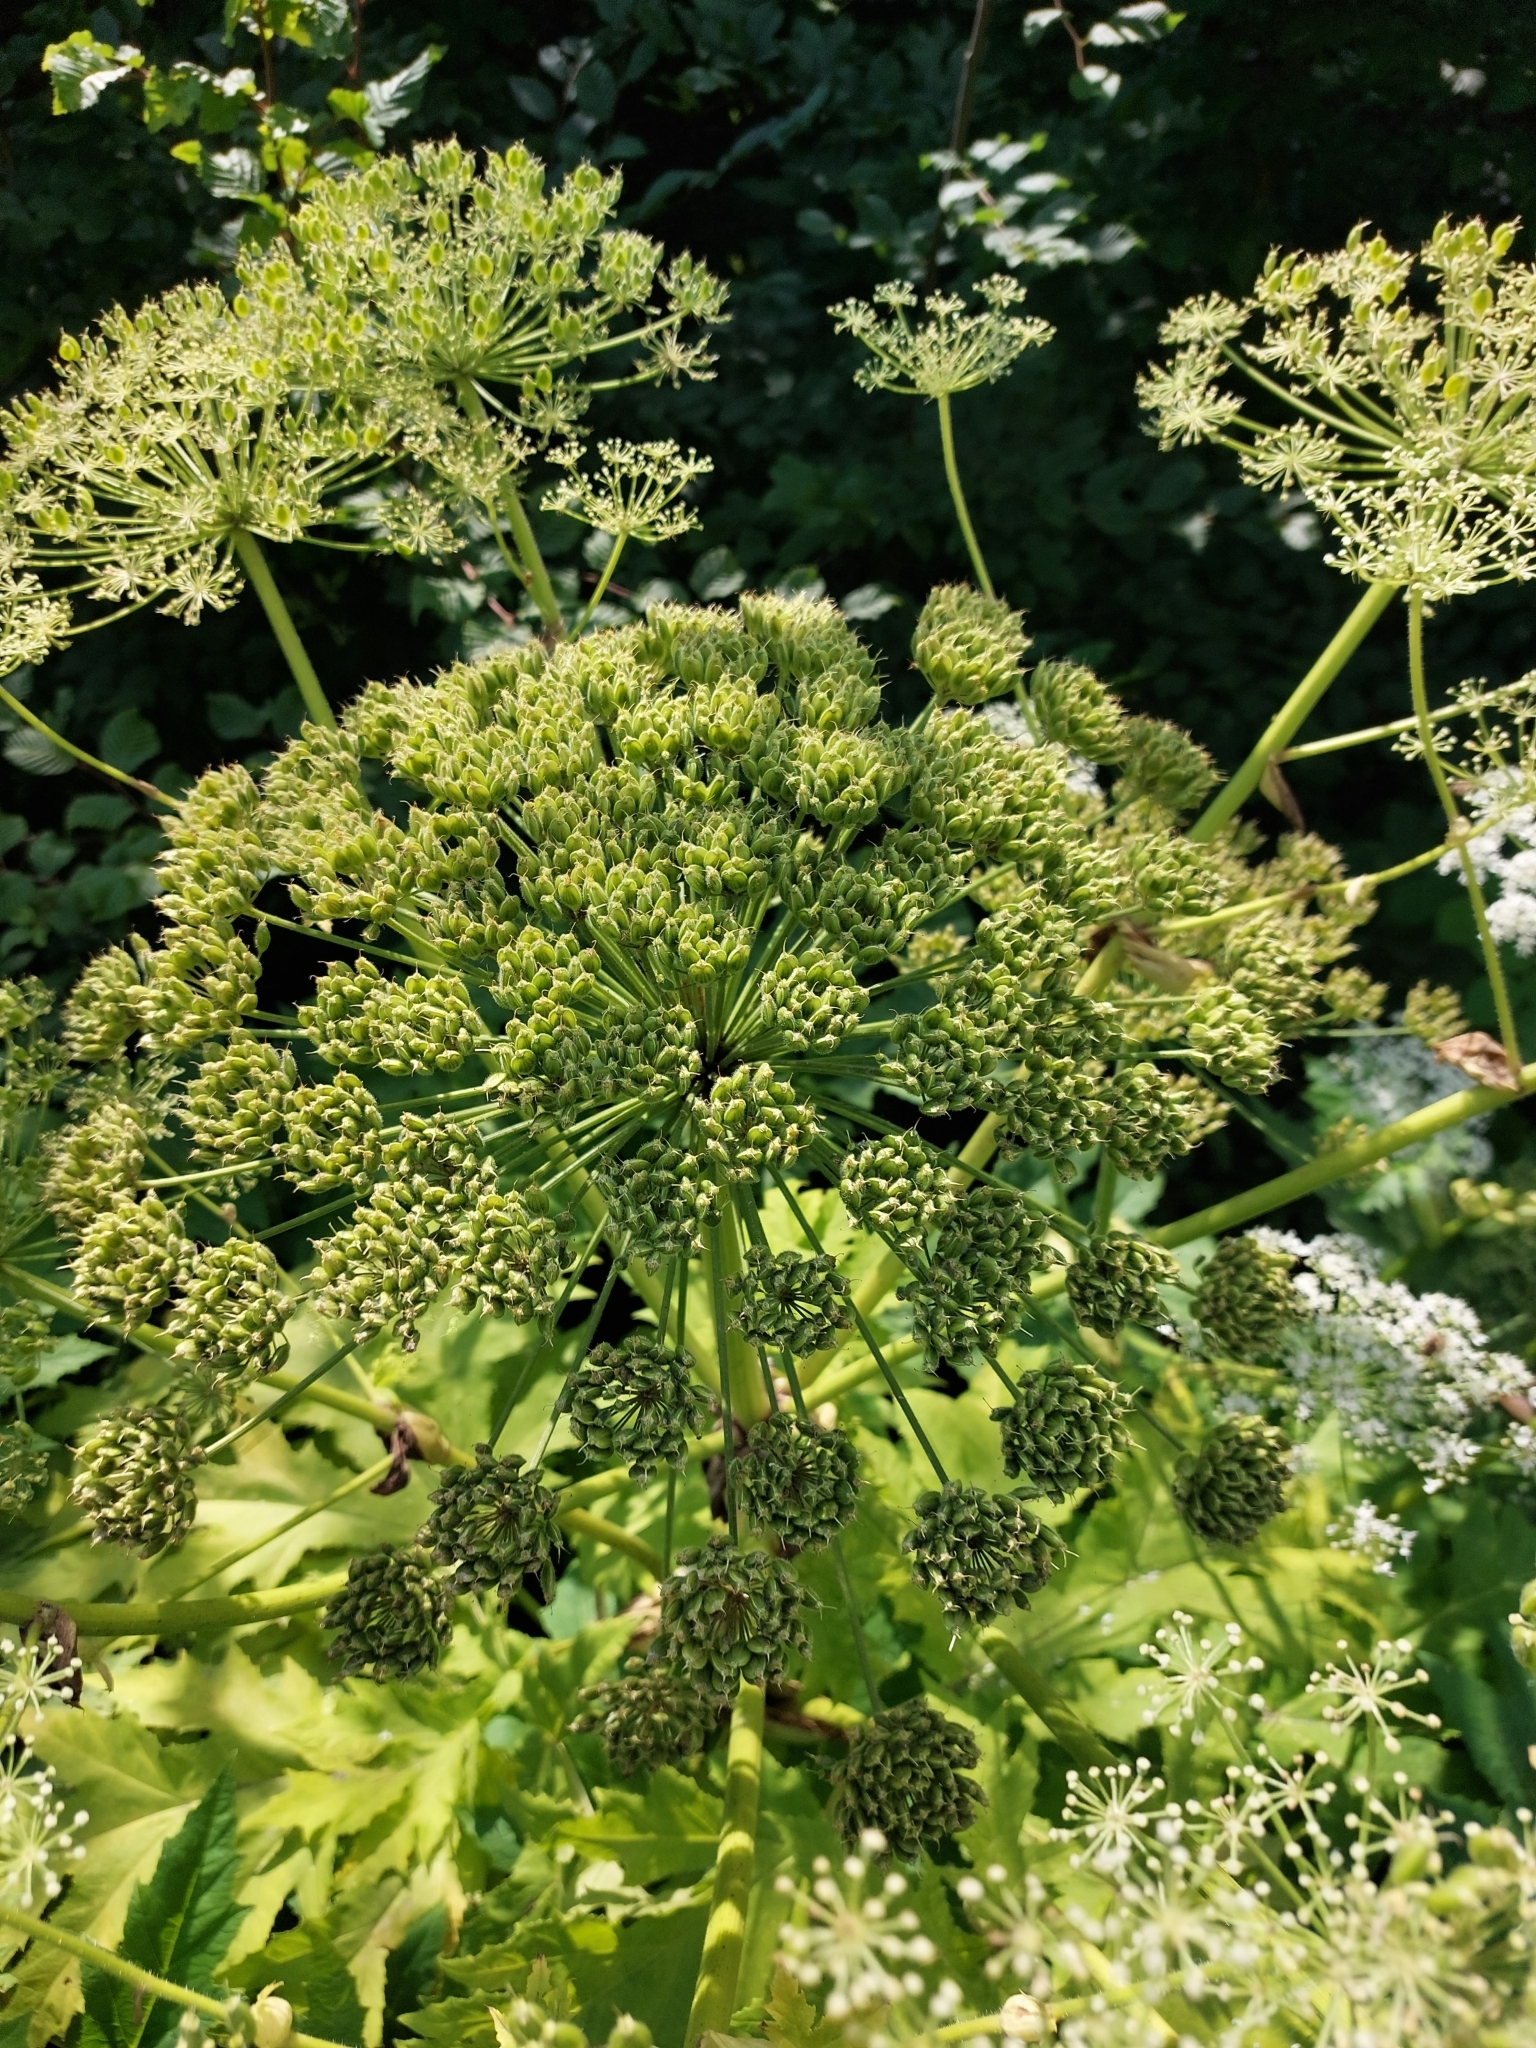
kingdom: Plantae
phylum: Tracheophyta
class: Magnoliopsida
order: Apiales
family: Apiaceae
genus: Heracleum
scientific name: Heracleum mantegazzianum
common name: Giant hogweed
